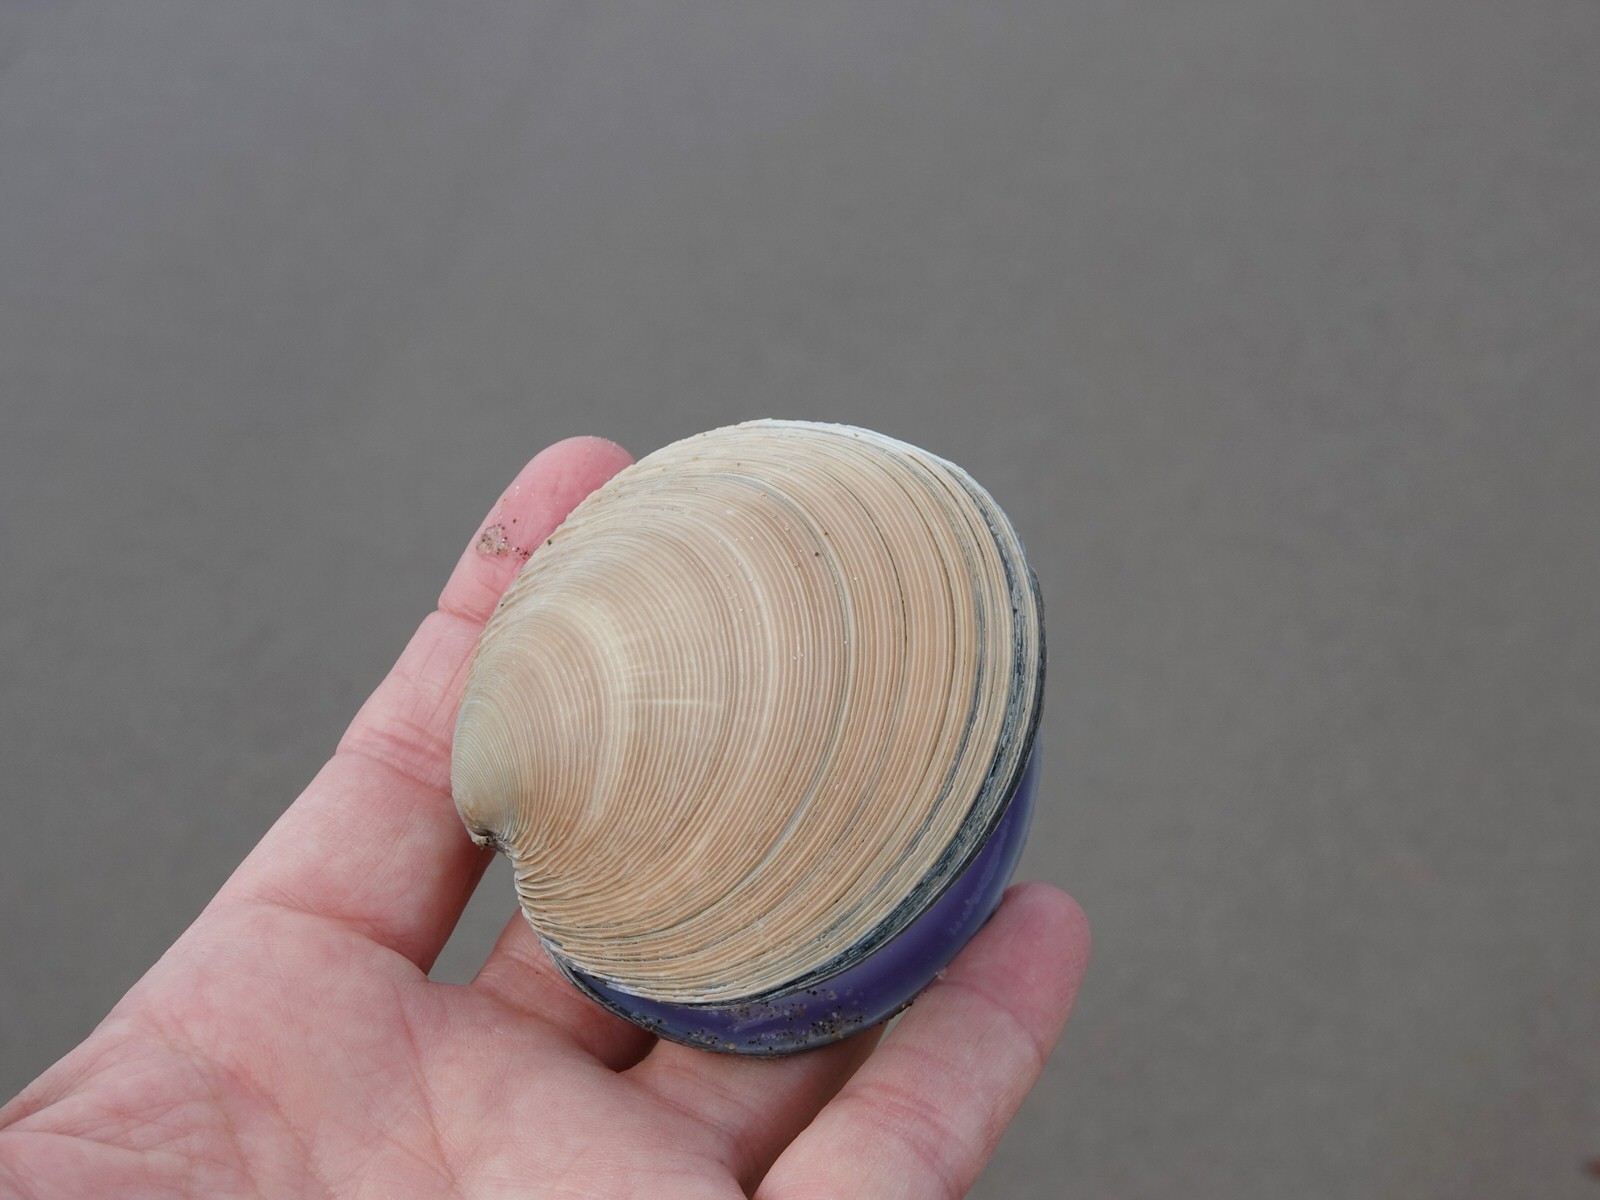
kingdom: Animalia
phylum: Mollusca
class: Bivalvia
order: Venerida
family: Veneridae
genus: Dosinia
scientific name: Dosinia anus
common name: Old-woman dosinia
